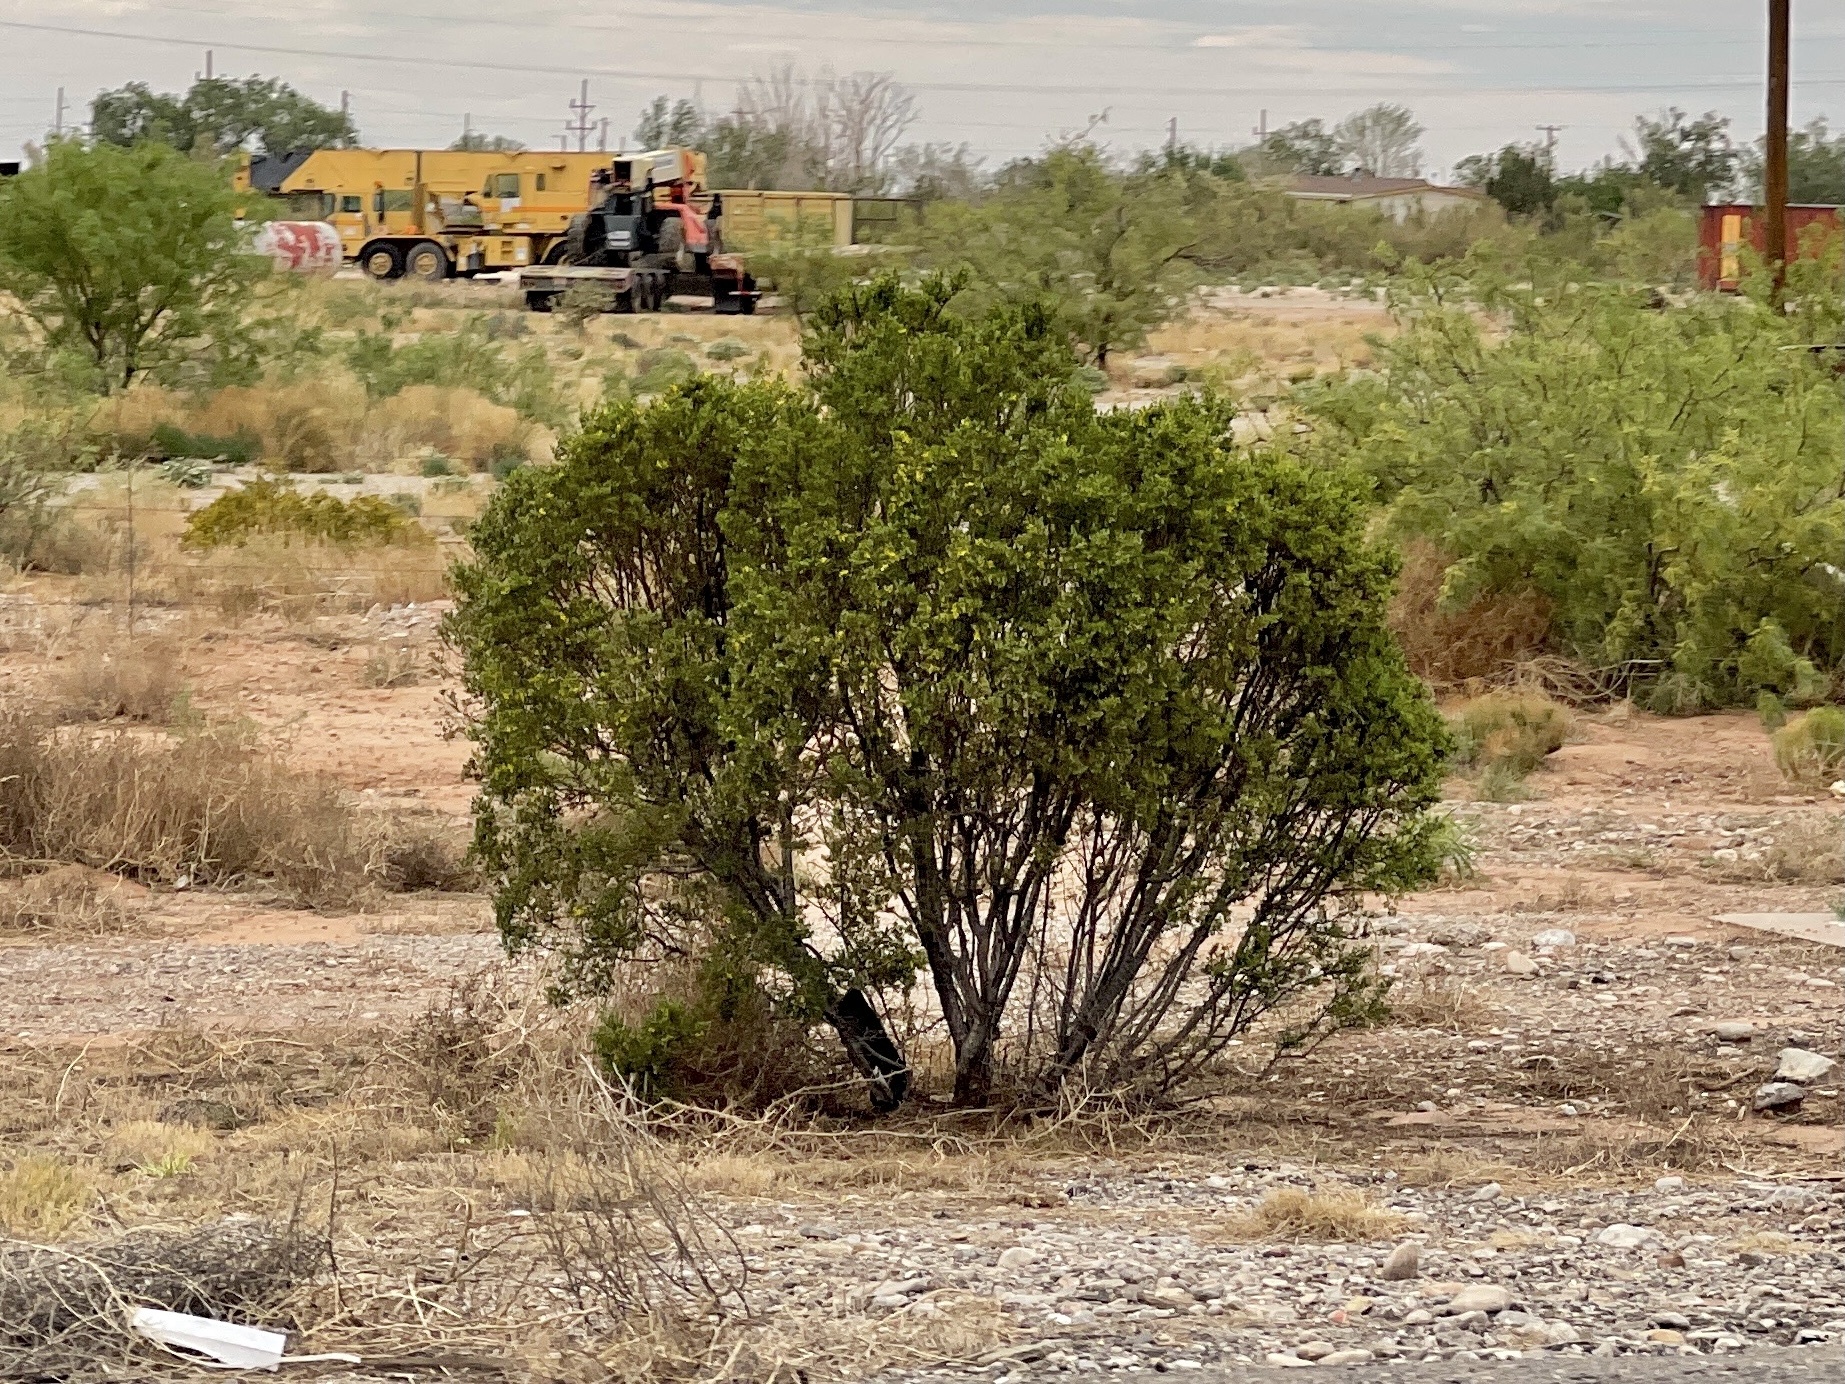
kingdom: Plantae
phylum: Tracheophyta
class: Magnoliopsida
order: Zygophyllales
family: Zygophyllaceae
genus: Larrea
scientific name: Larrea tridentata
